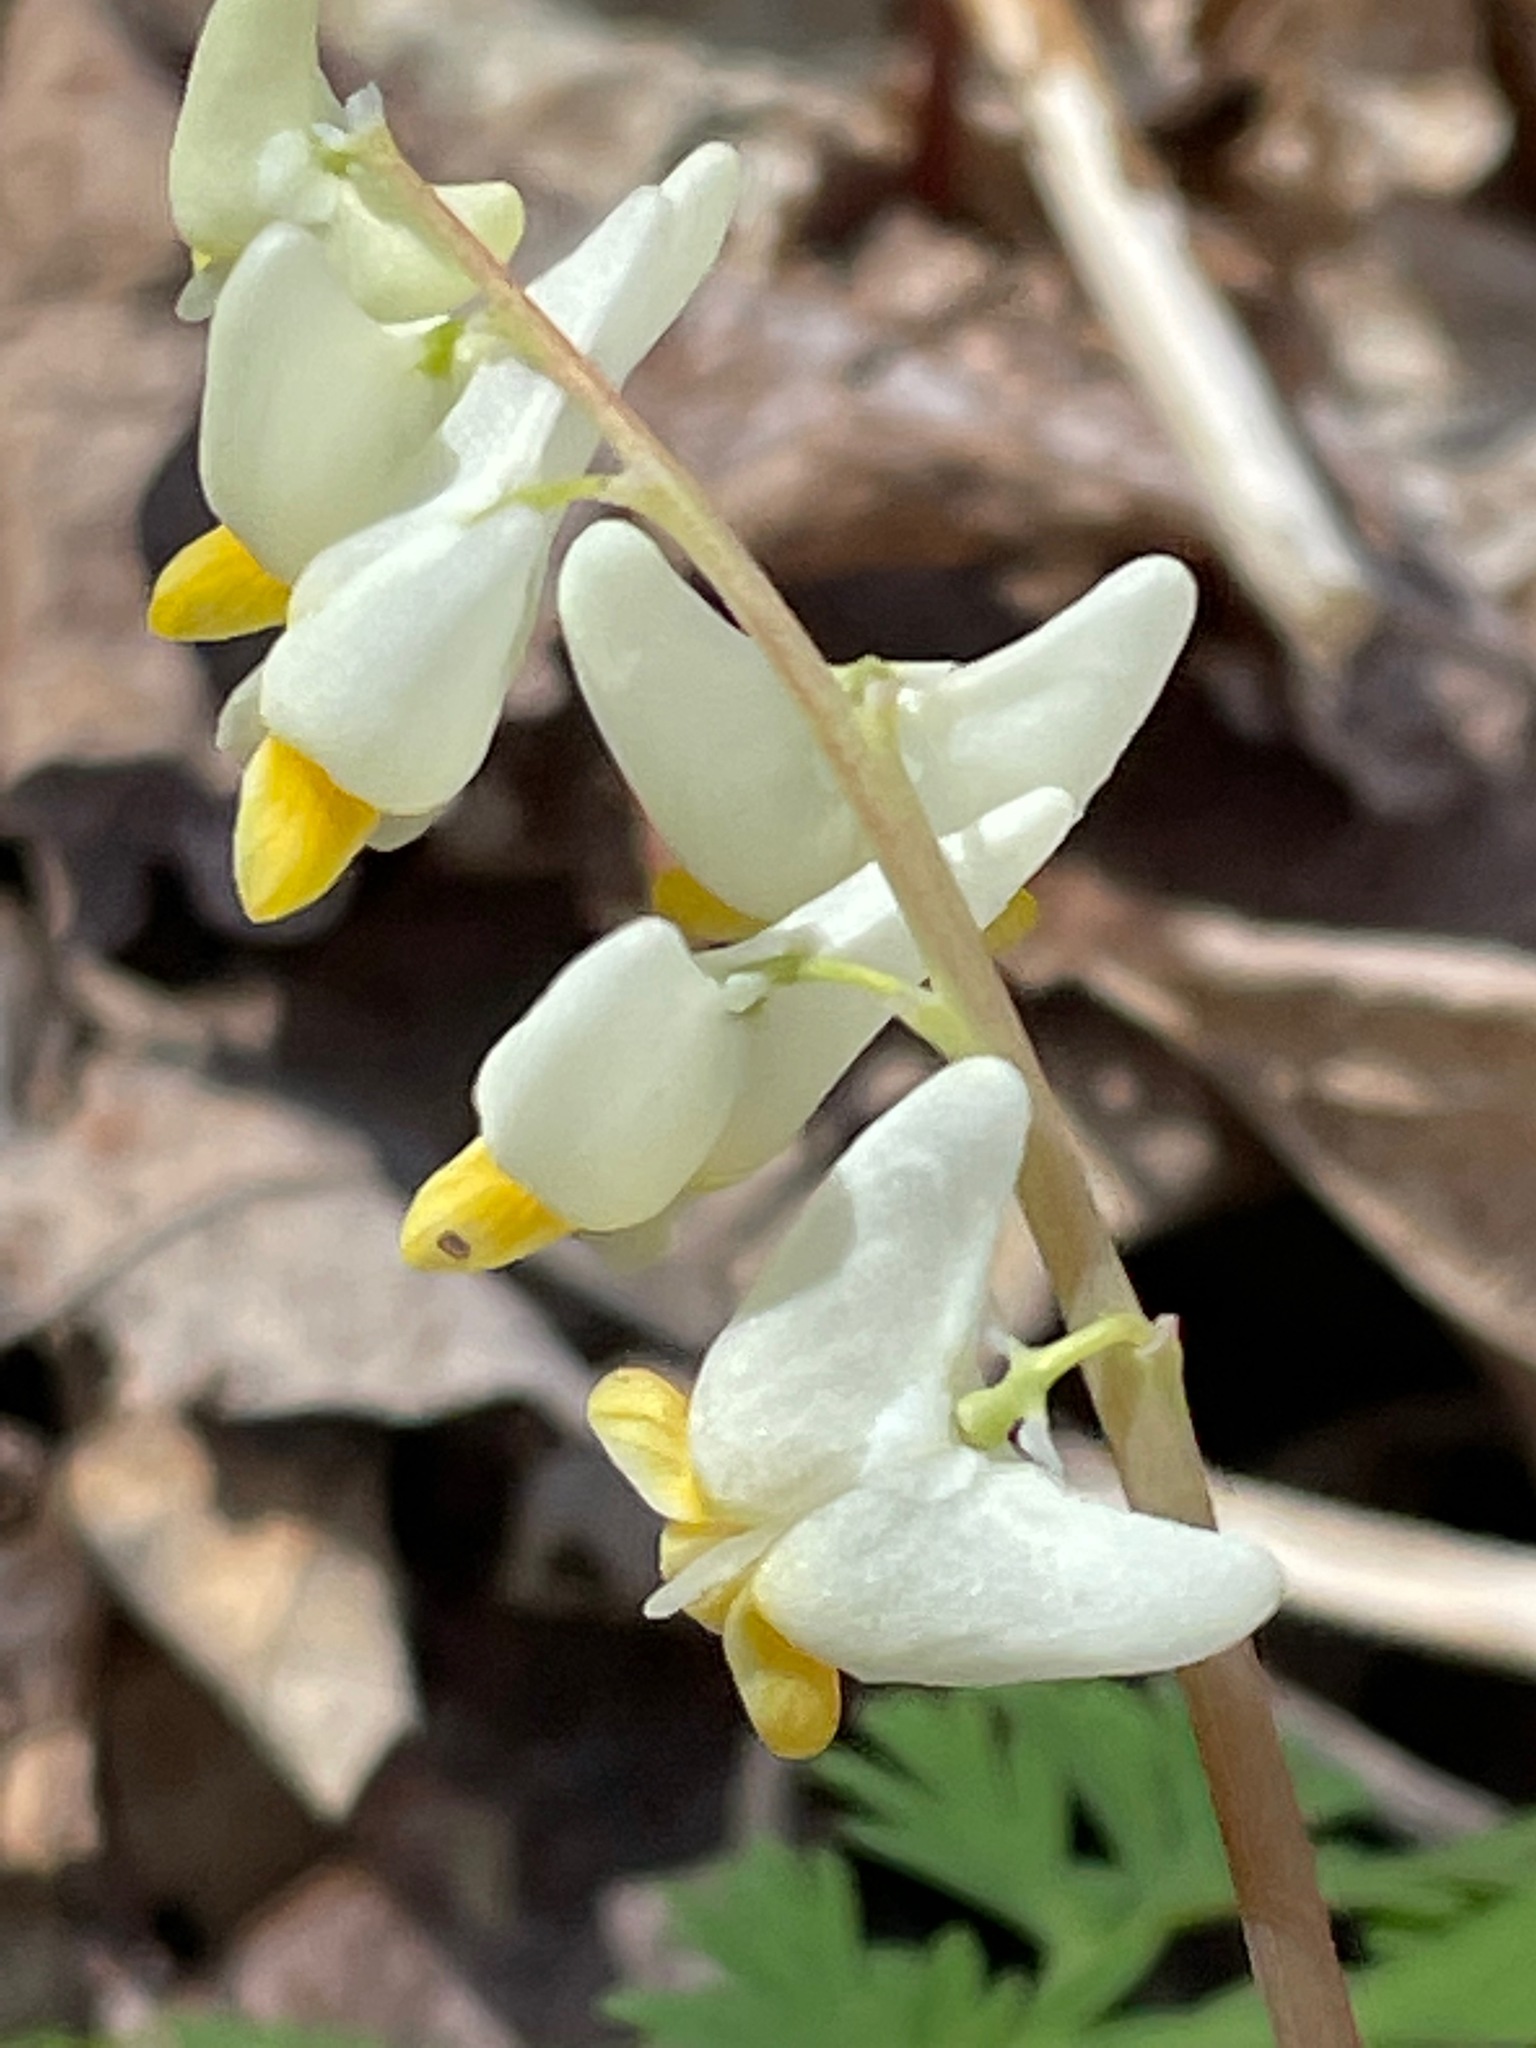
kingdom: Plantae
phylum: Tracheophyta
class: Magnoliopsida
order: Ranunculales
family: Papaveraceae
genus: Dicentra
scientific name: Dicentra cucullaria
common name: Dutchman's breeches
